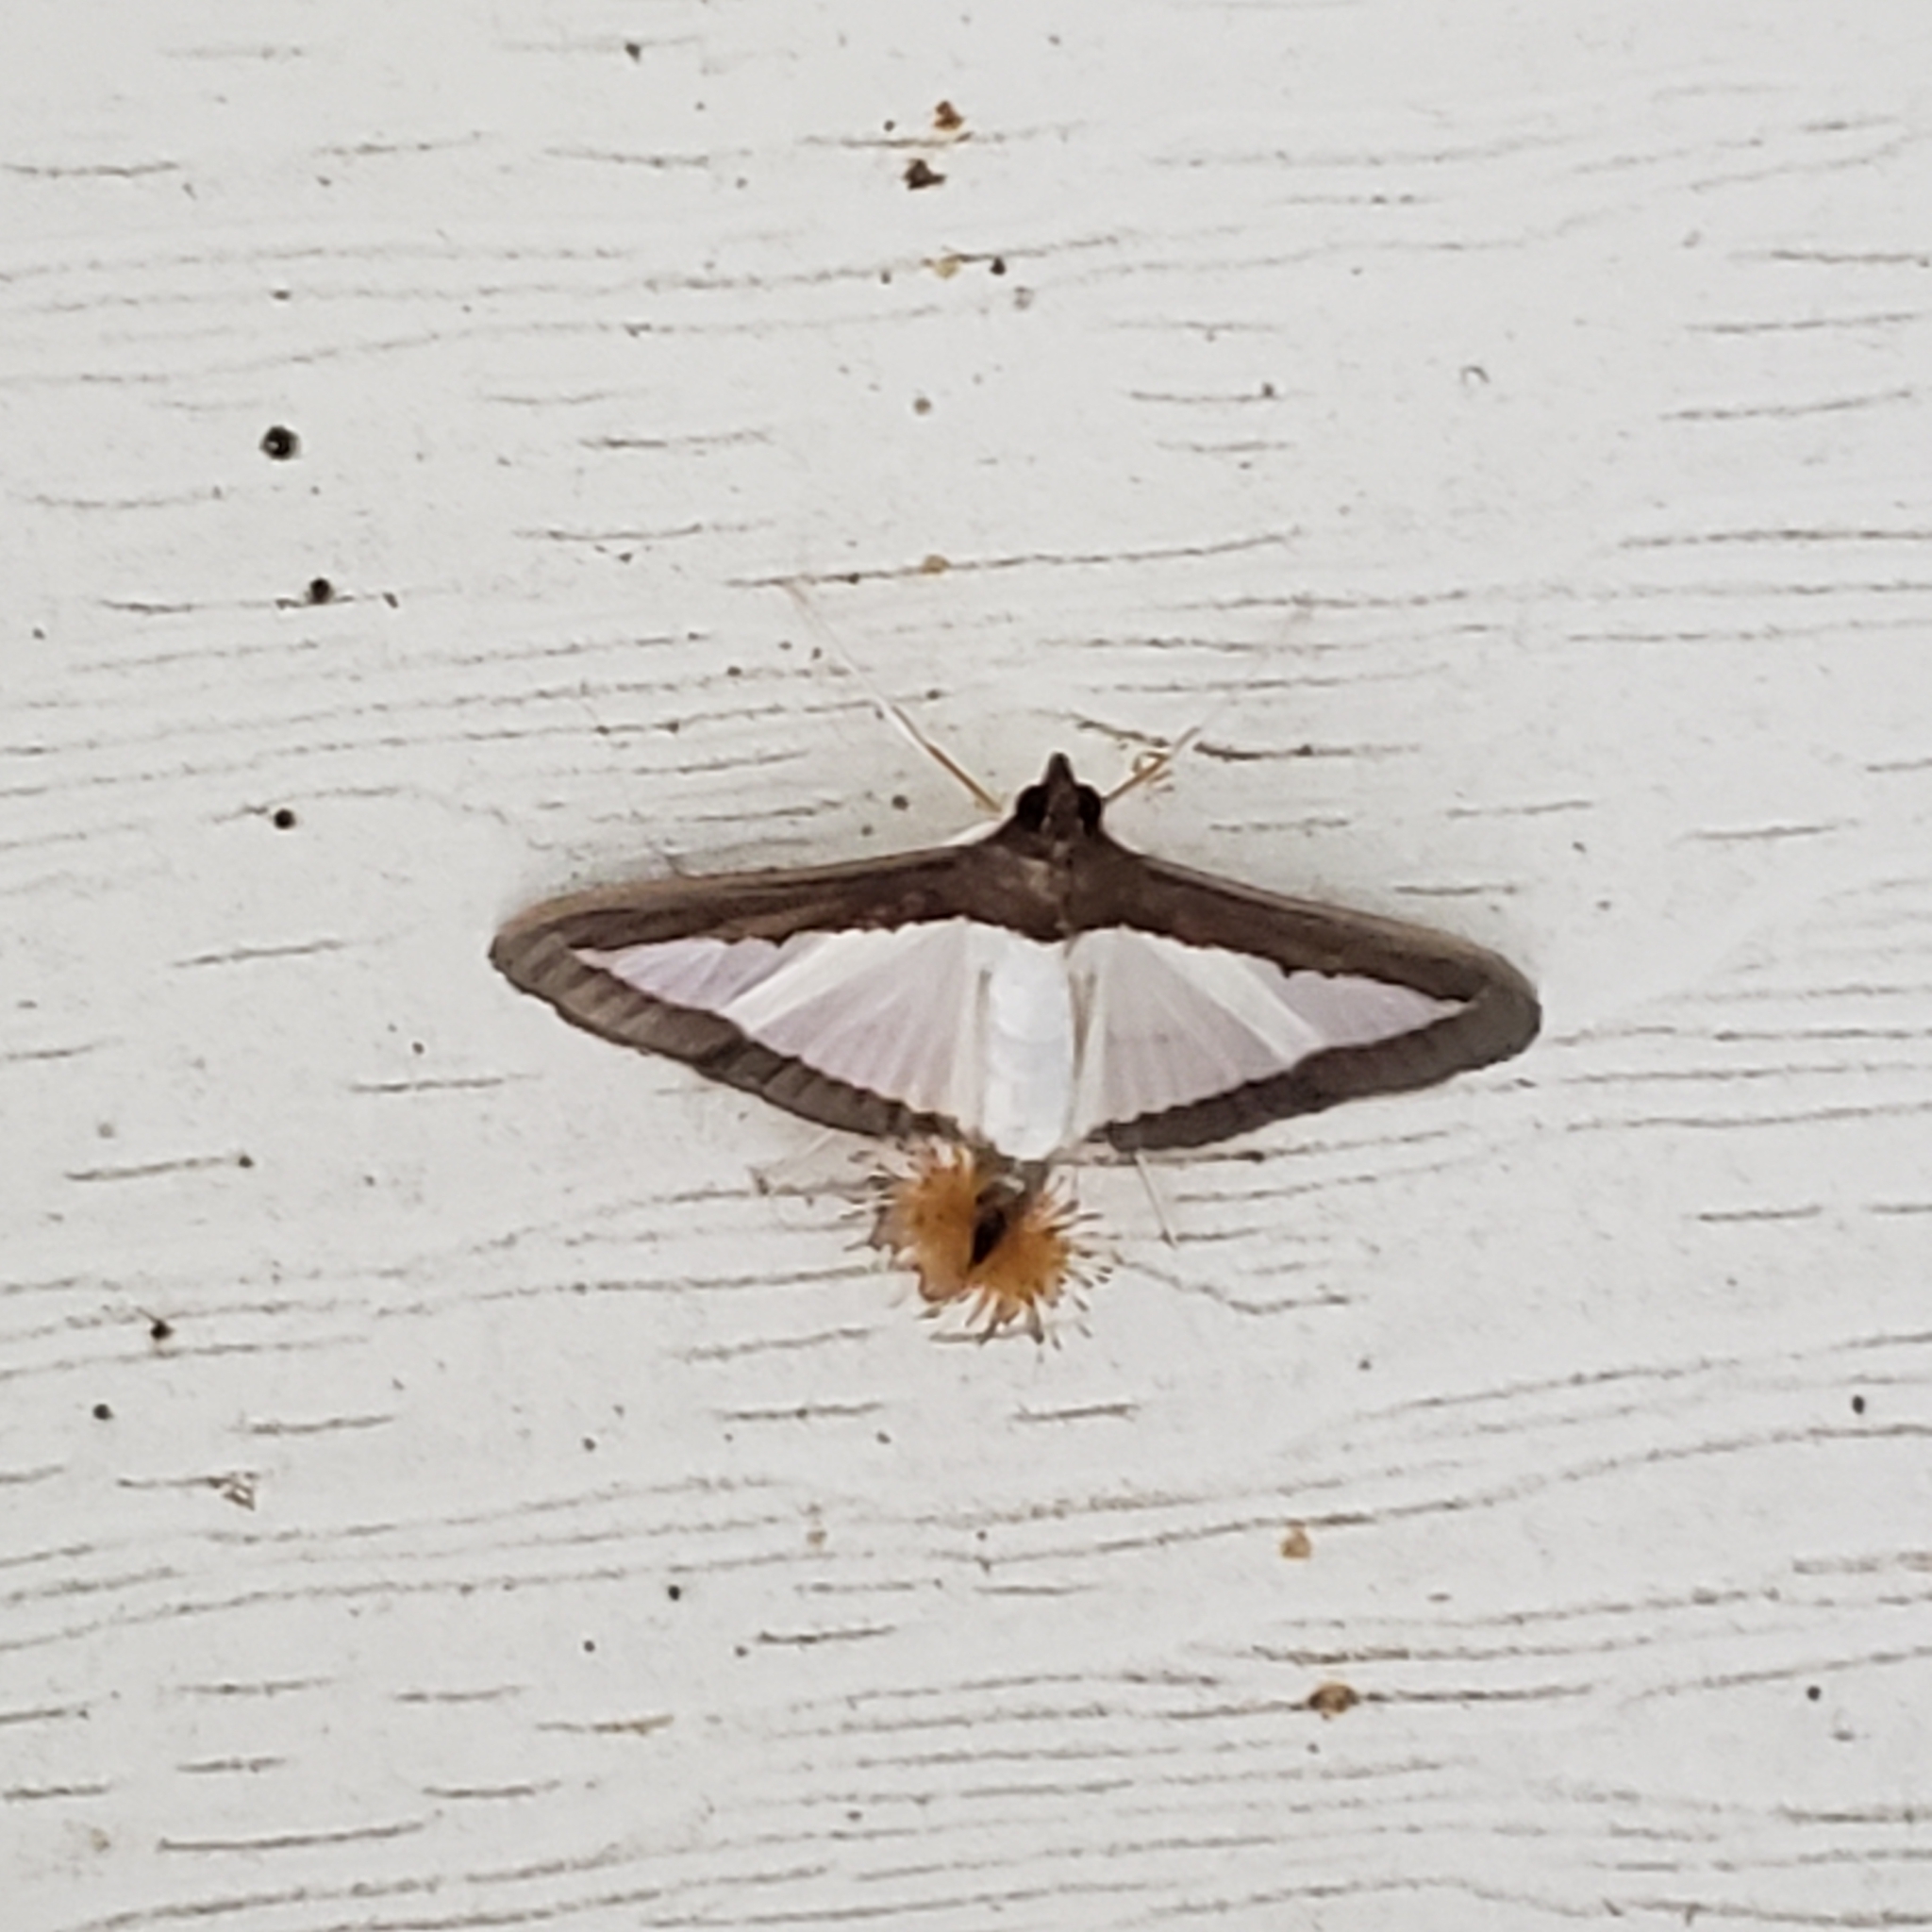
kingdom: Animalia
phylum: Arthropoda
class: Insecta
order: Lepidoptera
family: Crambidae
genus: Diaphania
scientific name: Diaphania hyalinata
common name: Melonworm
